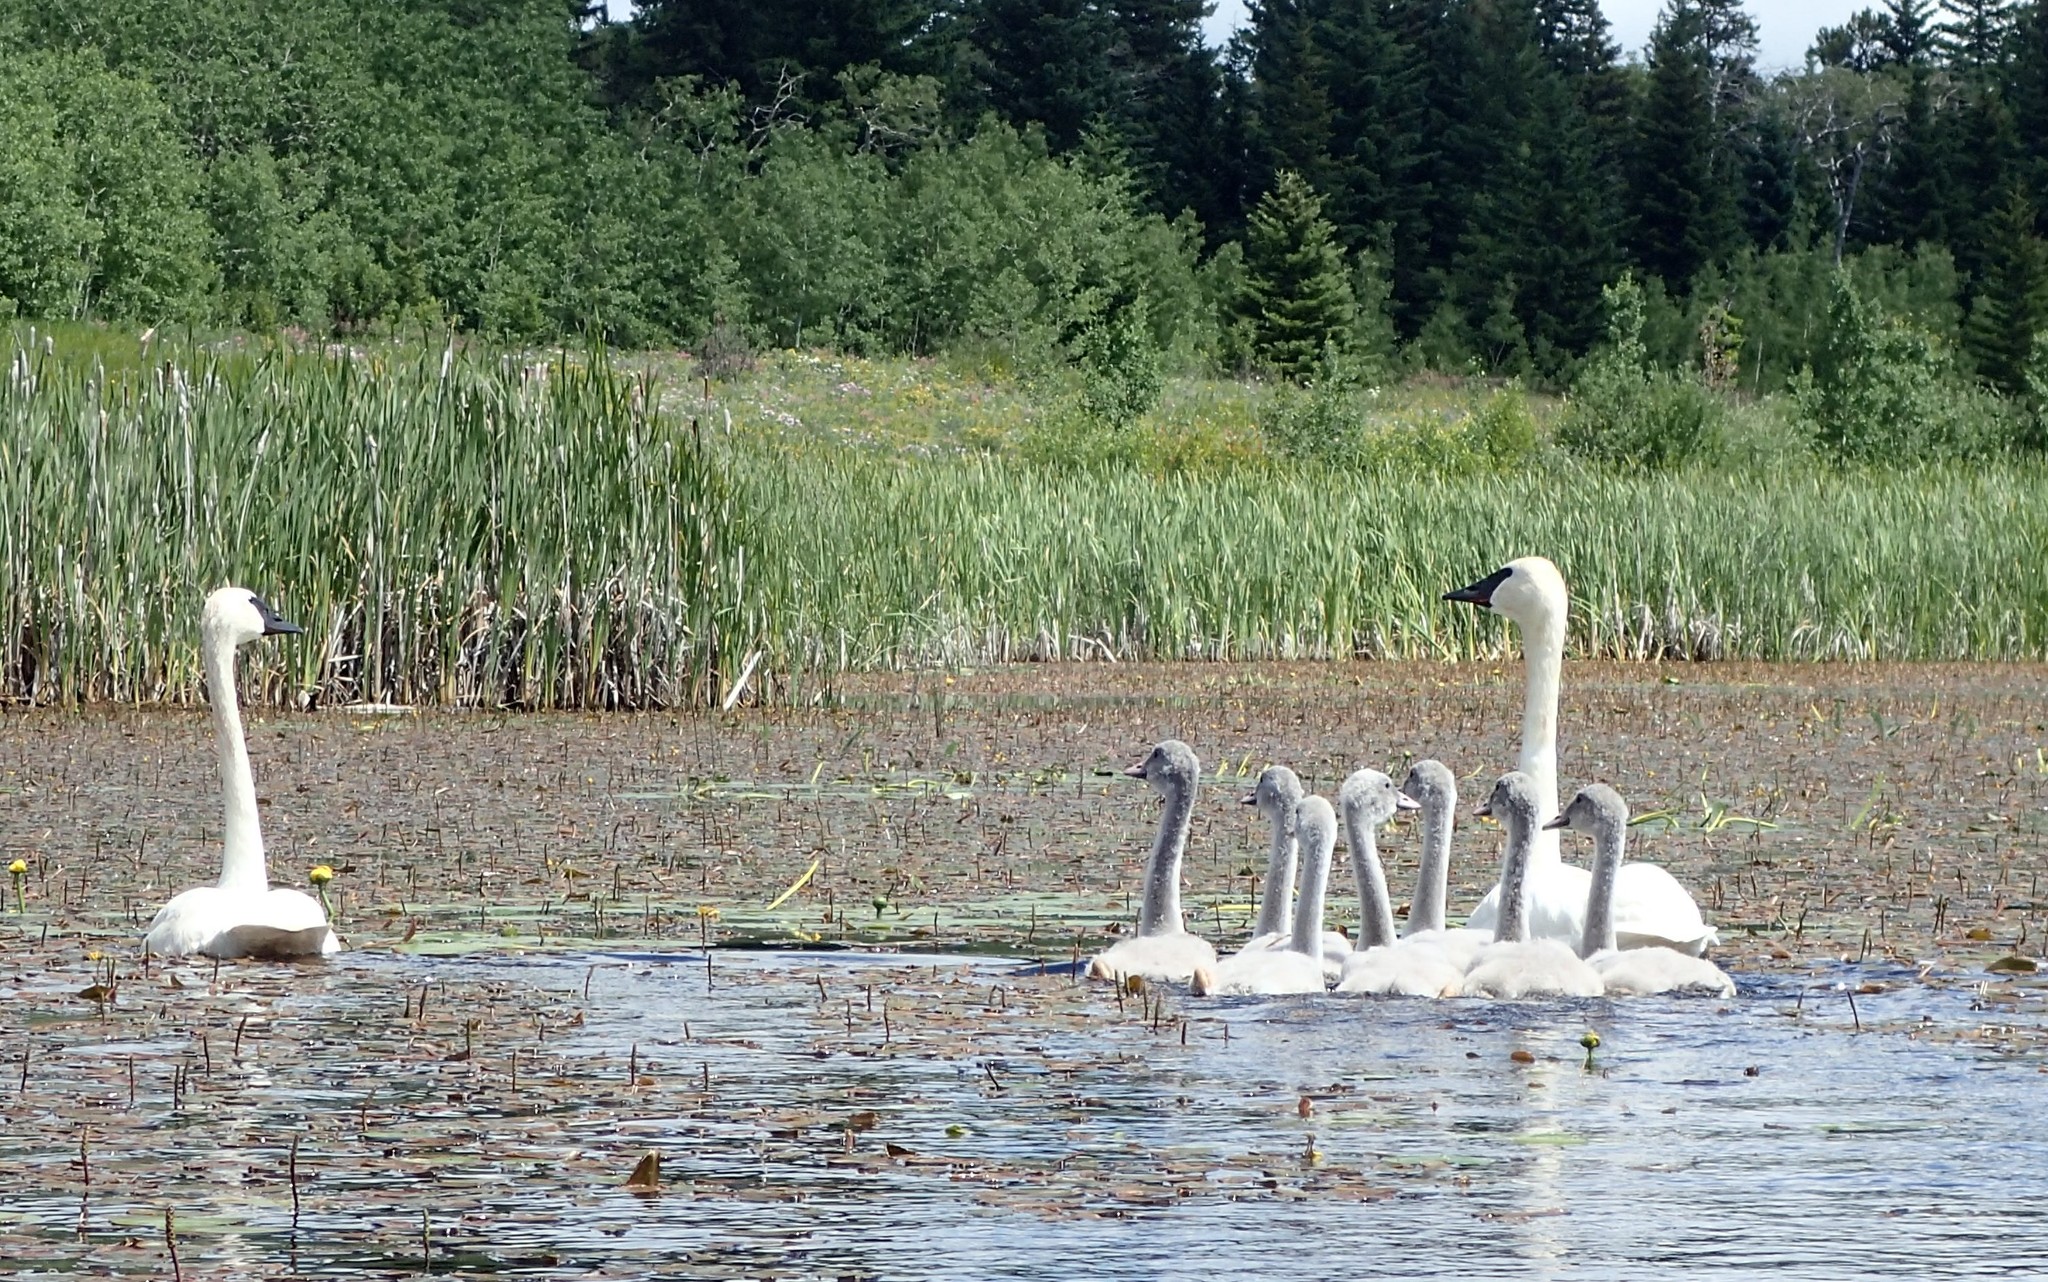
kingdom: Animalia
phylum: Chordata
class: Aves
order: Anseriformes
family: Anatidae
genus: Cygnus
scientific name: Cygnus buccinator
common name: Trumpeter swan
